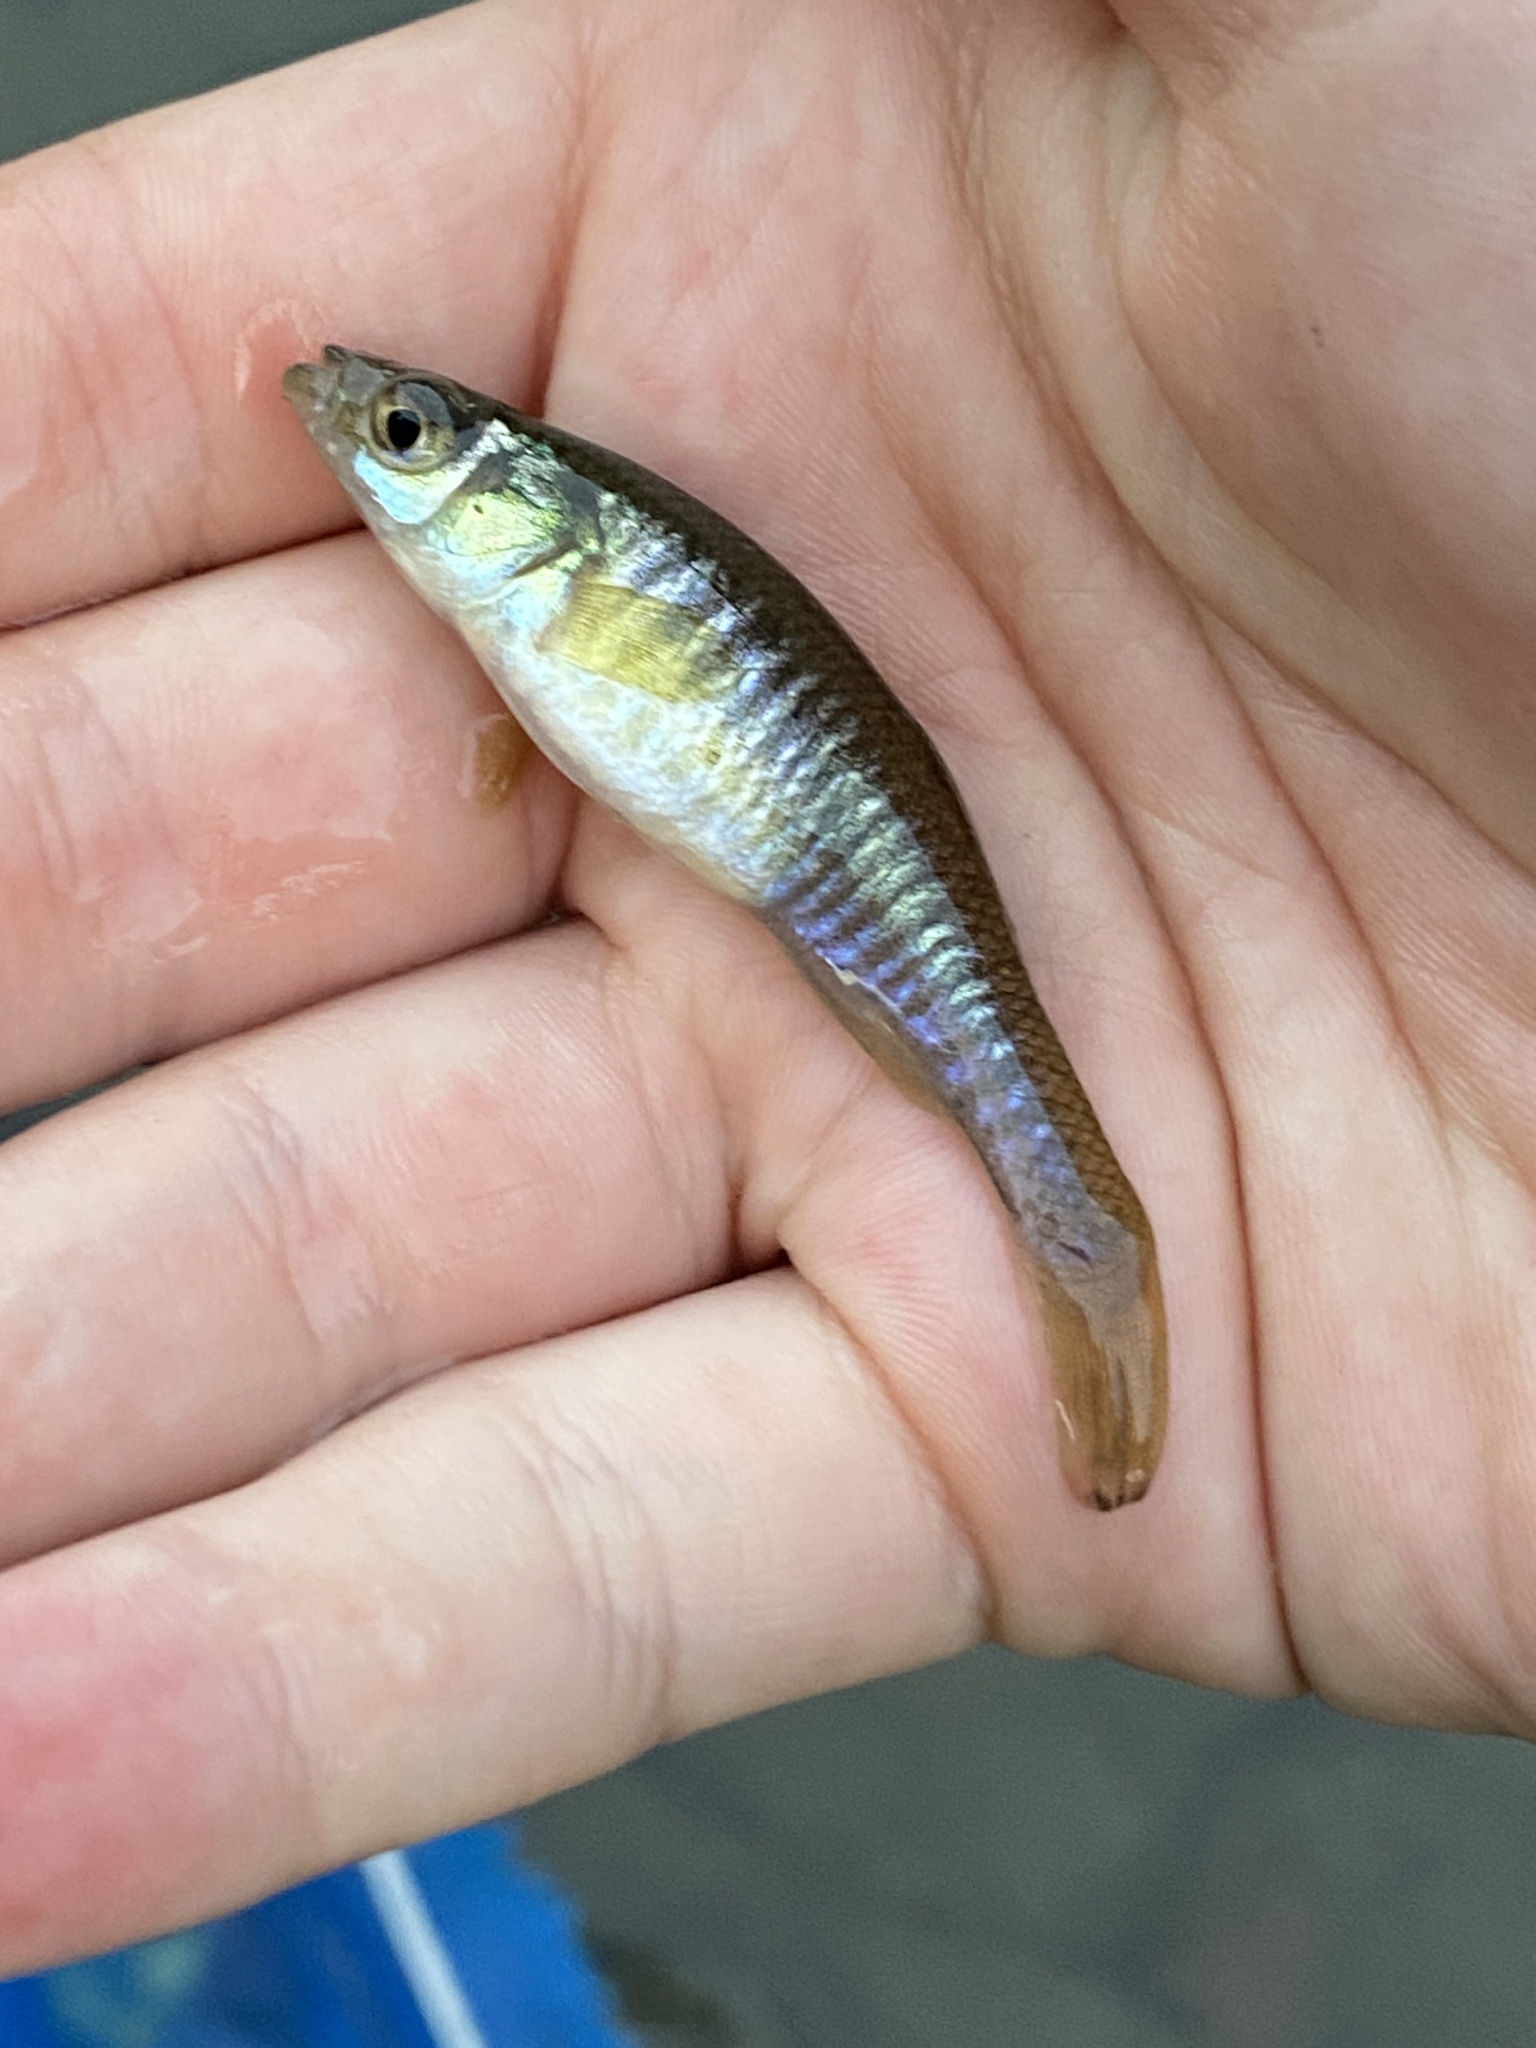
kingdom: Animalia
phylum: Chordata
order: Cyprinodontiformes
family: Fundulidae
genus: Fundulus
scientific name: Fundulus diaphanus
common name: Banded killifish
